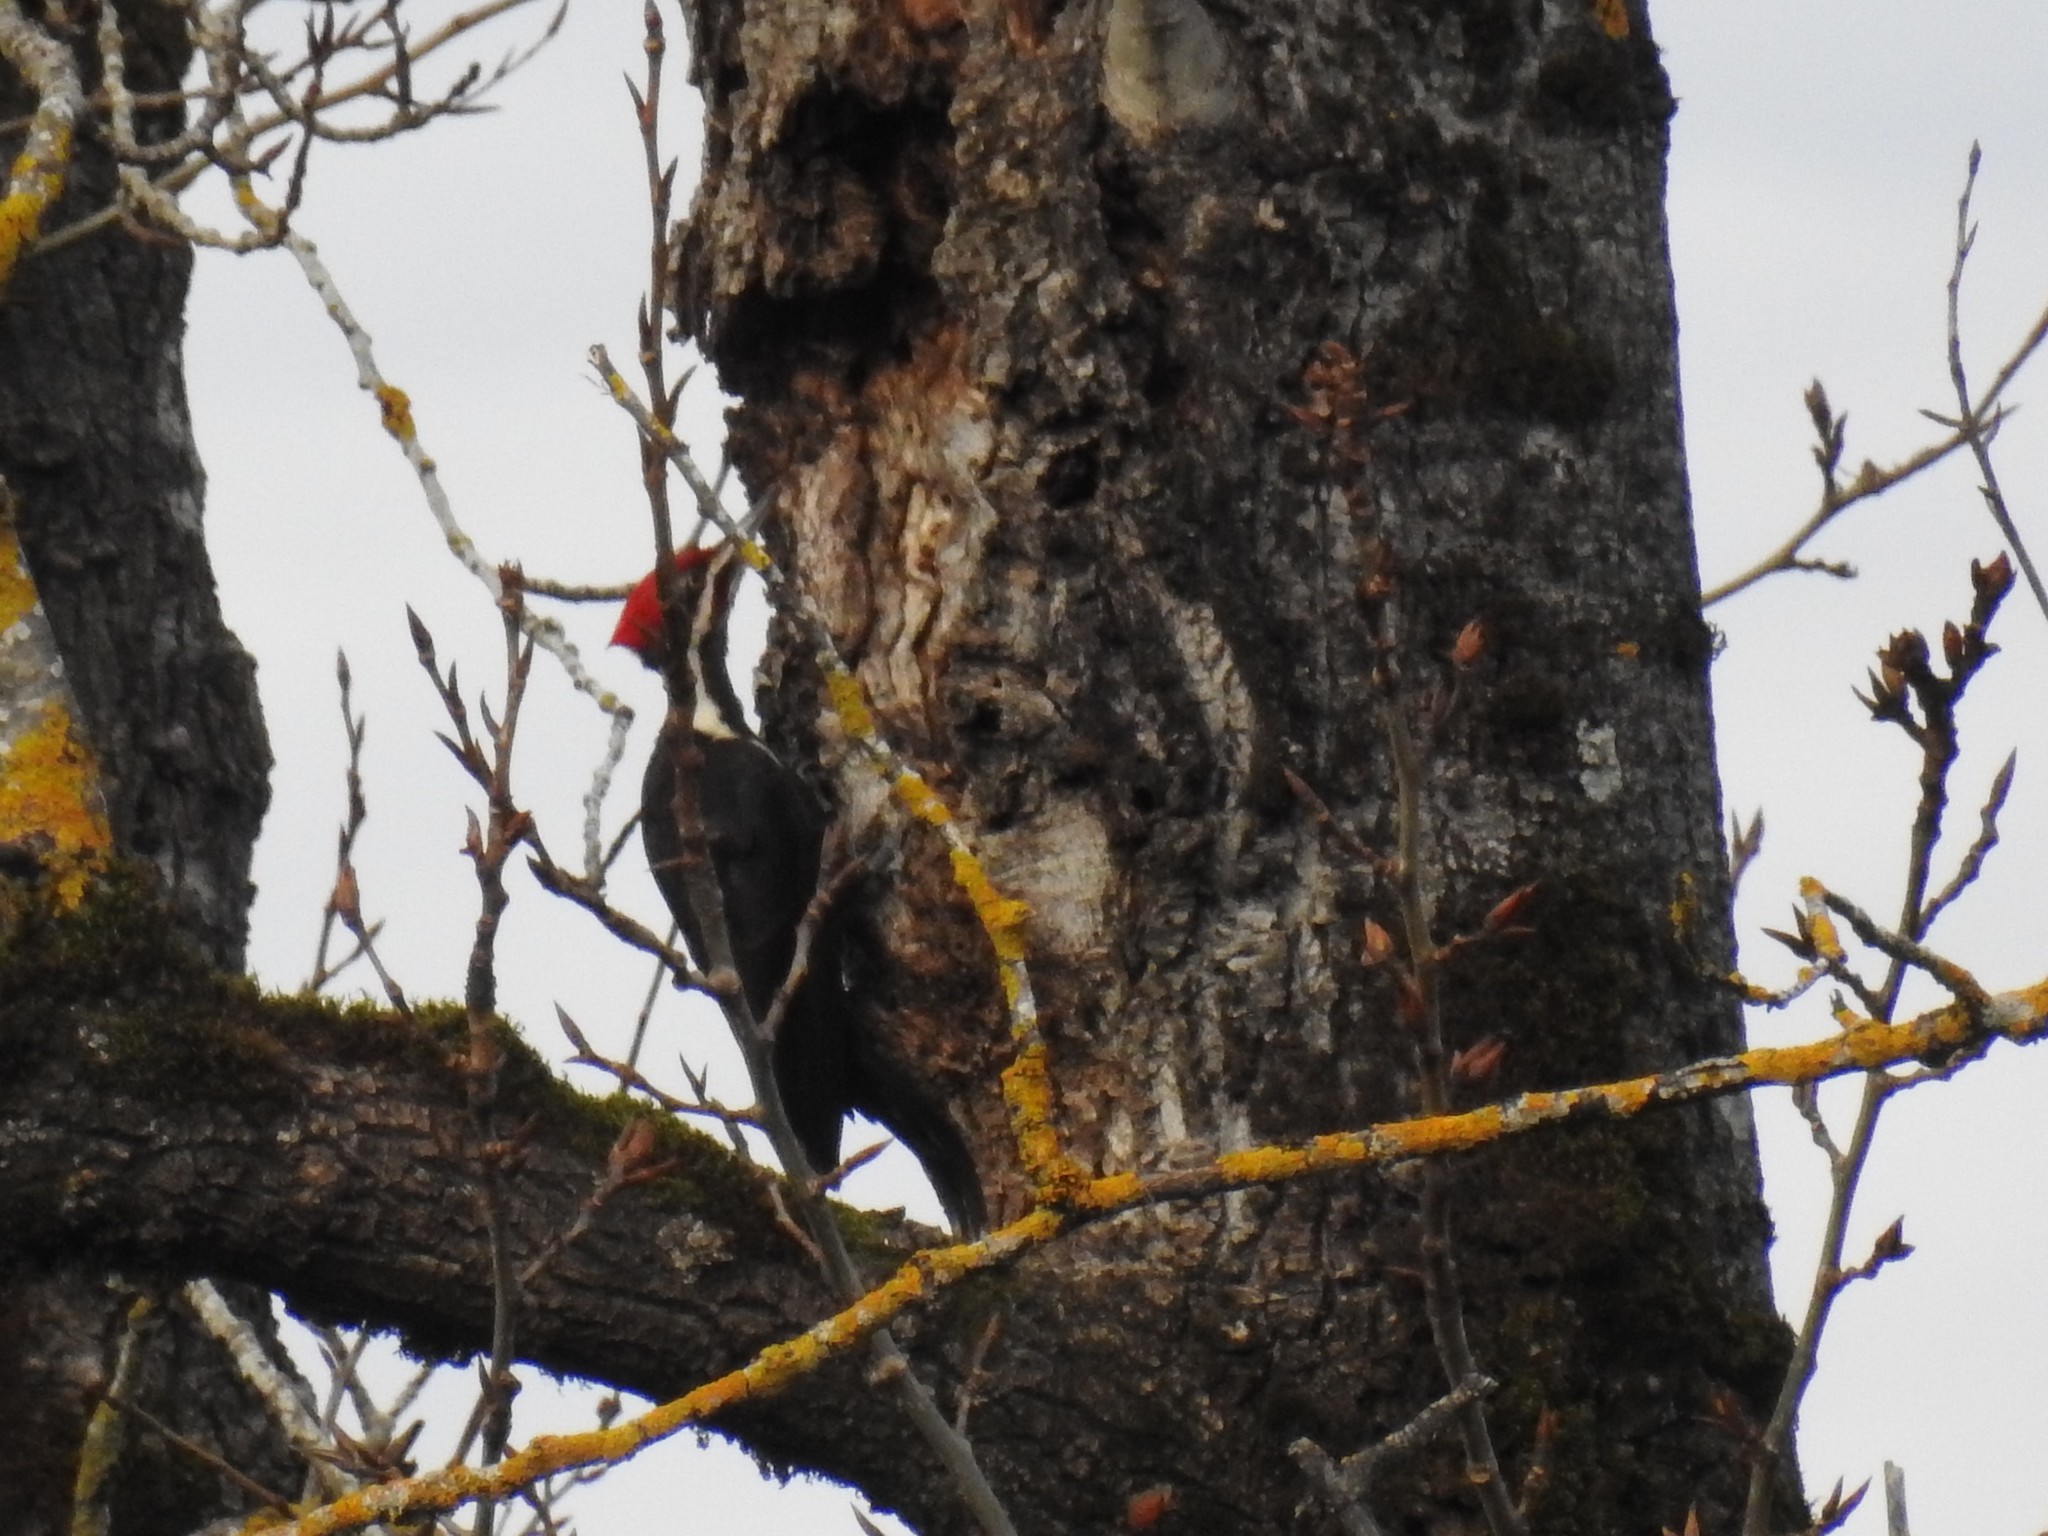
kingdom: Animalia
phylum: Chordata
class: Aves
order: Piciformes
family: Picidae
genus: Dryocopus
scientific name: Dryocopus pileatus
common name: Pileated woodpecker
